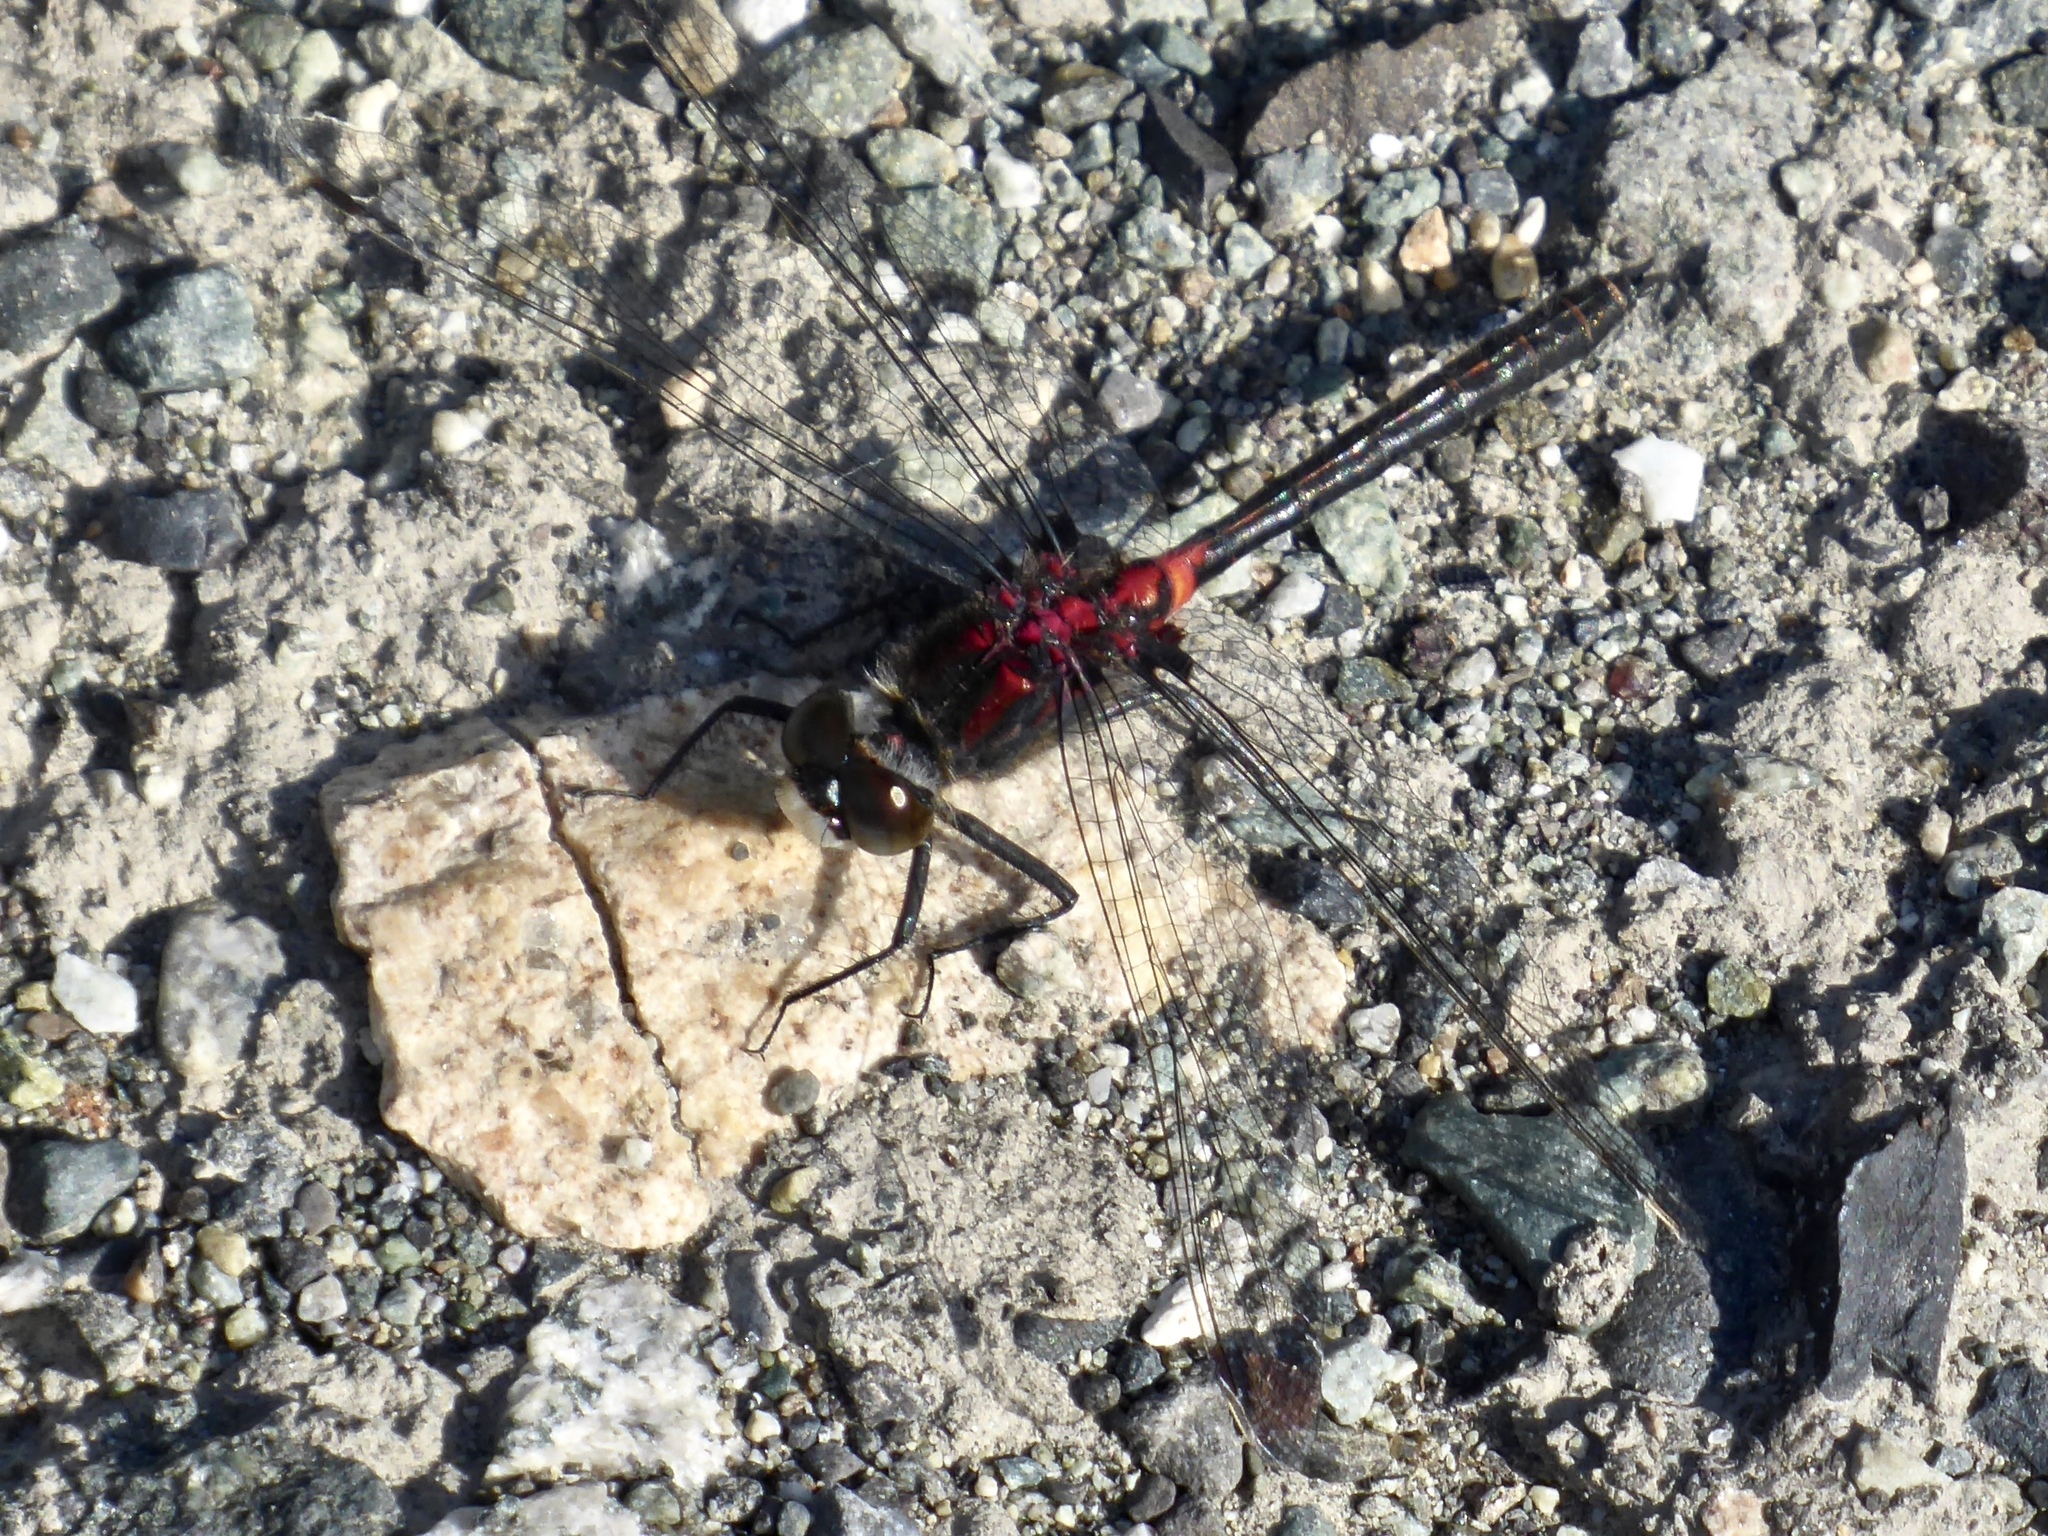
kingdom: Animalia
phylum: Arthropoda
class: Insecta
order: Odonata
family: Libellulidae
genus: Leucorrhinia
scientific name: Leucorrhinia hudsonica
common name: Hudsonian whiteface
